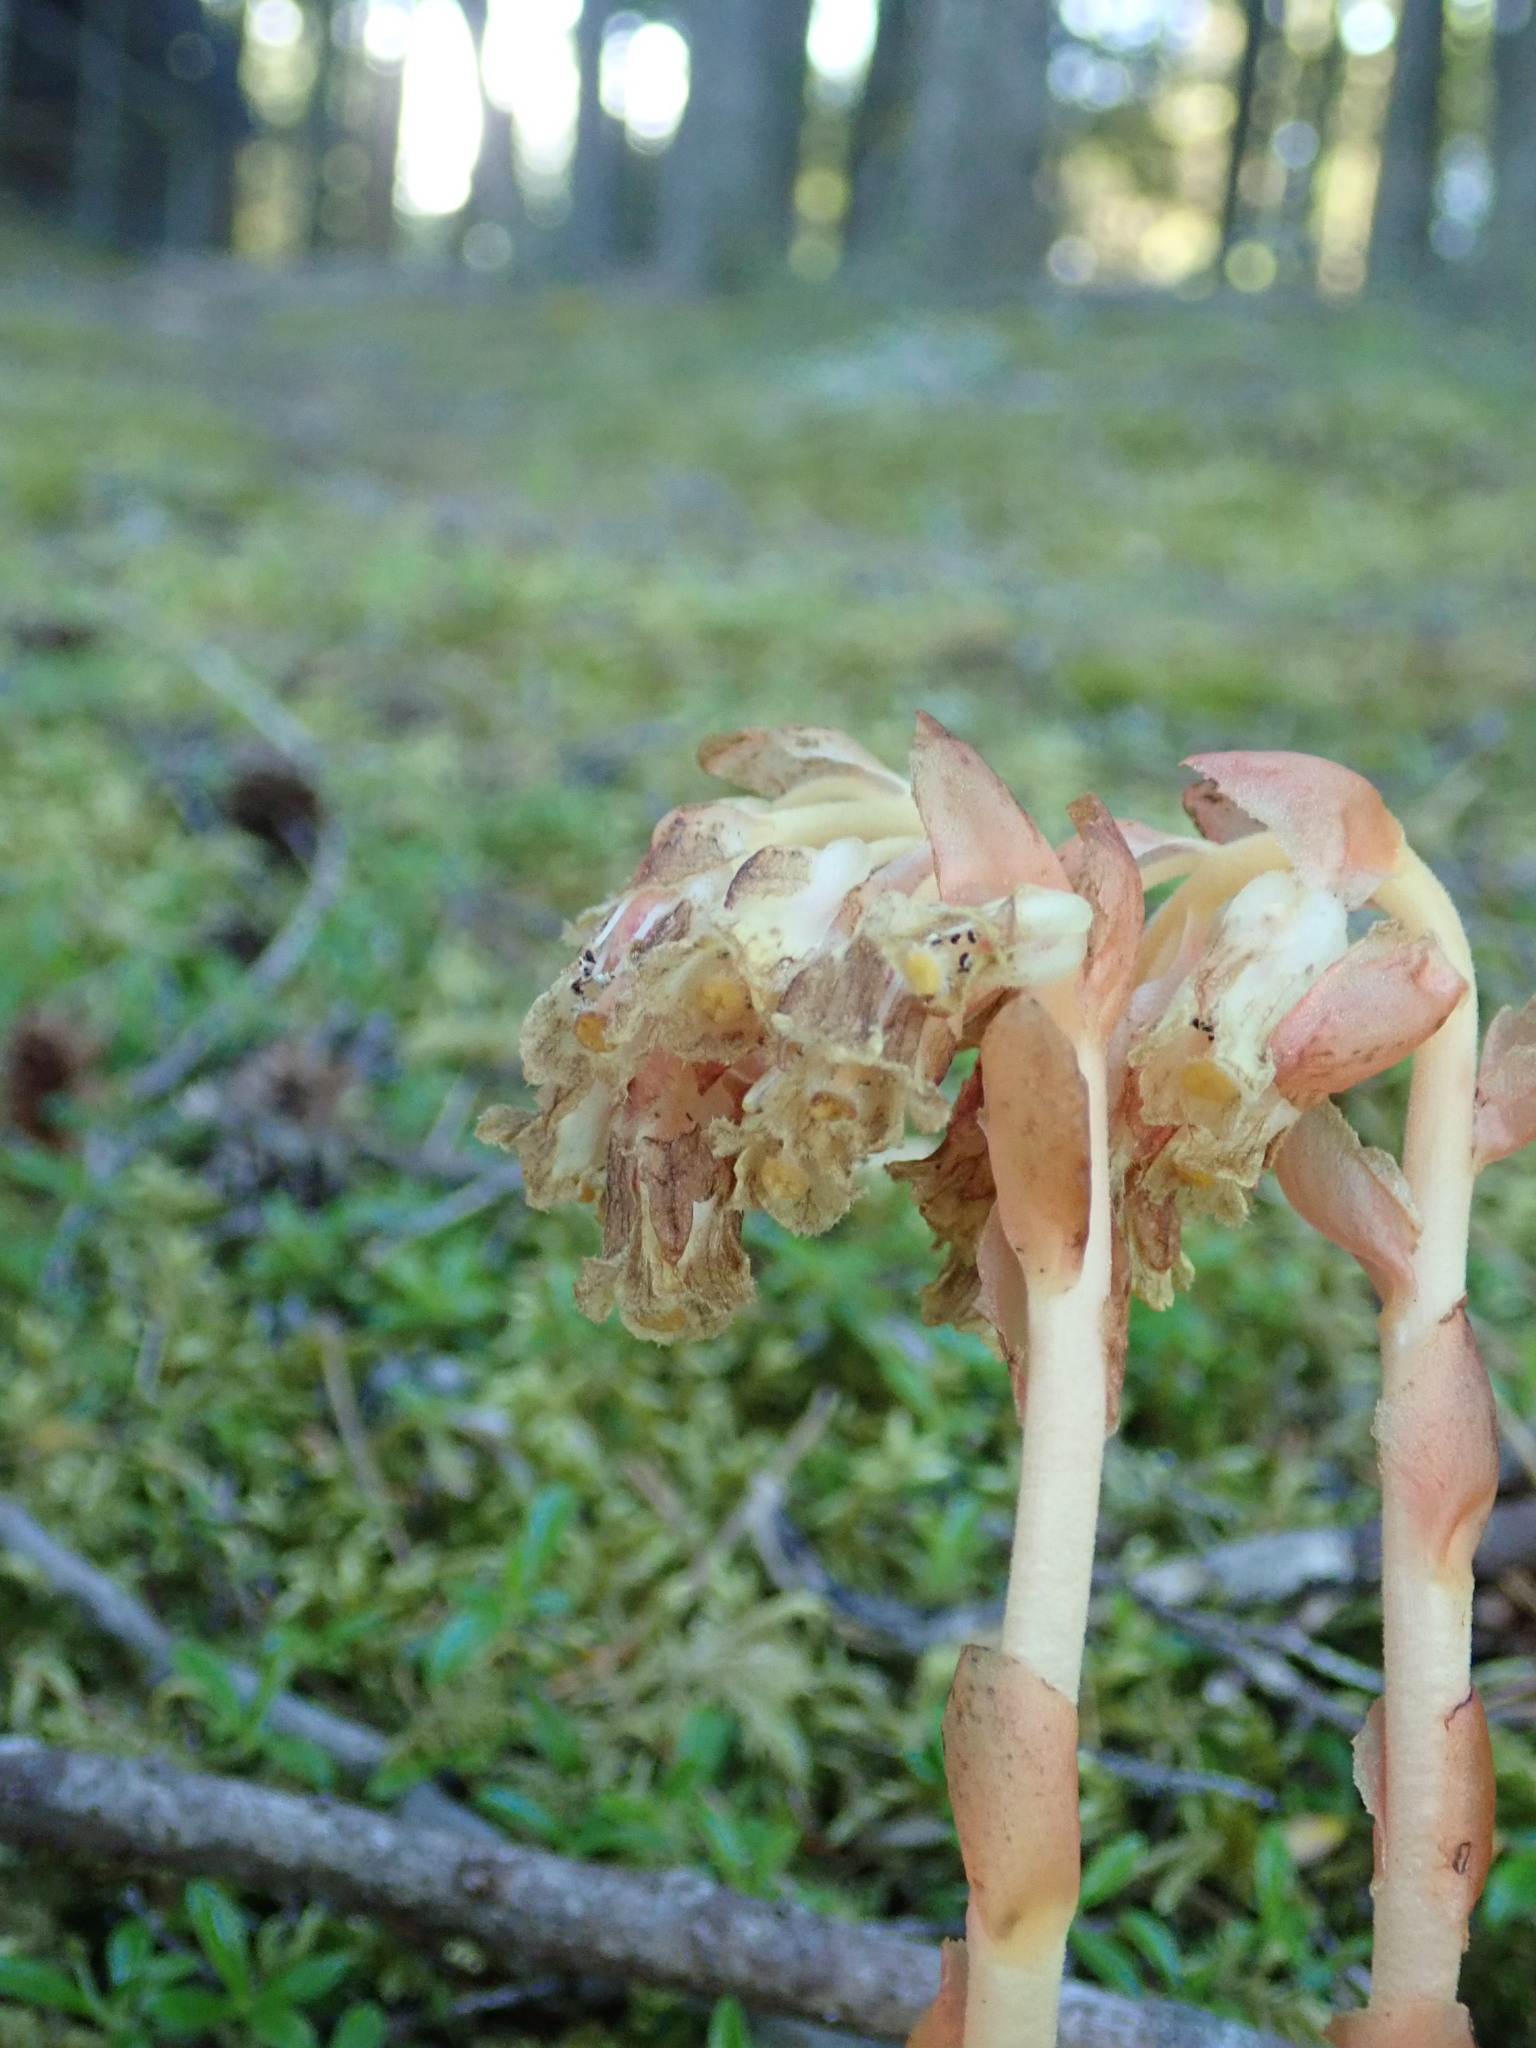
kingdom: Plantae
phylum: Tracheophyta
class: Magnoliopsida
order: Ericales
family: Ericaceae
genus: Hypopitys
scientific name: Hypopitys monotropa
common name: Yellow bird's-nest
